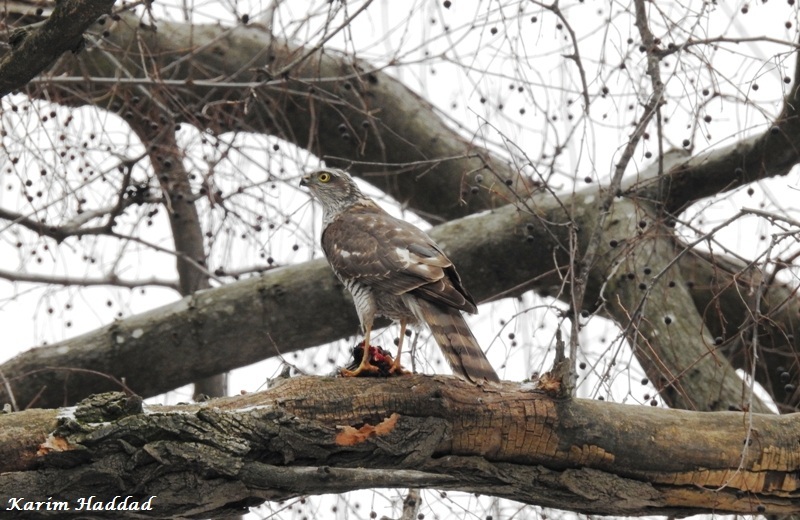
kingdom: Animalia
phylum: Chordata
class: Aves
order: Accipitriformes
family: Accipitridae
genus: Accipiter
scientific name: Accipiter nisus
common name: Eurasian sparrowhawk
